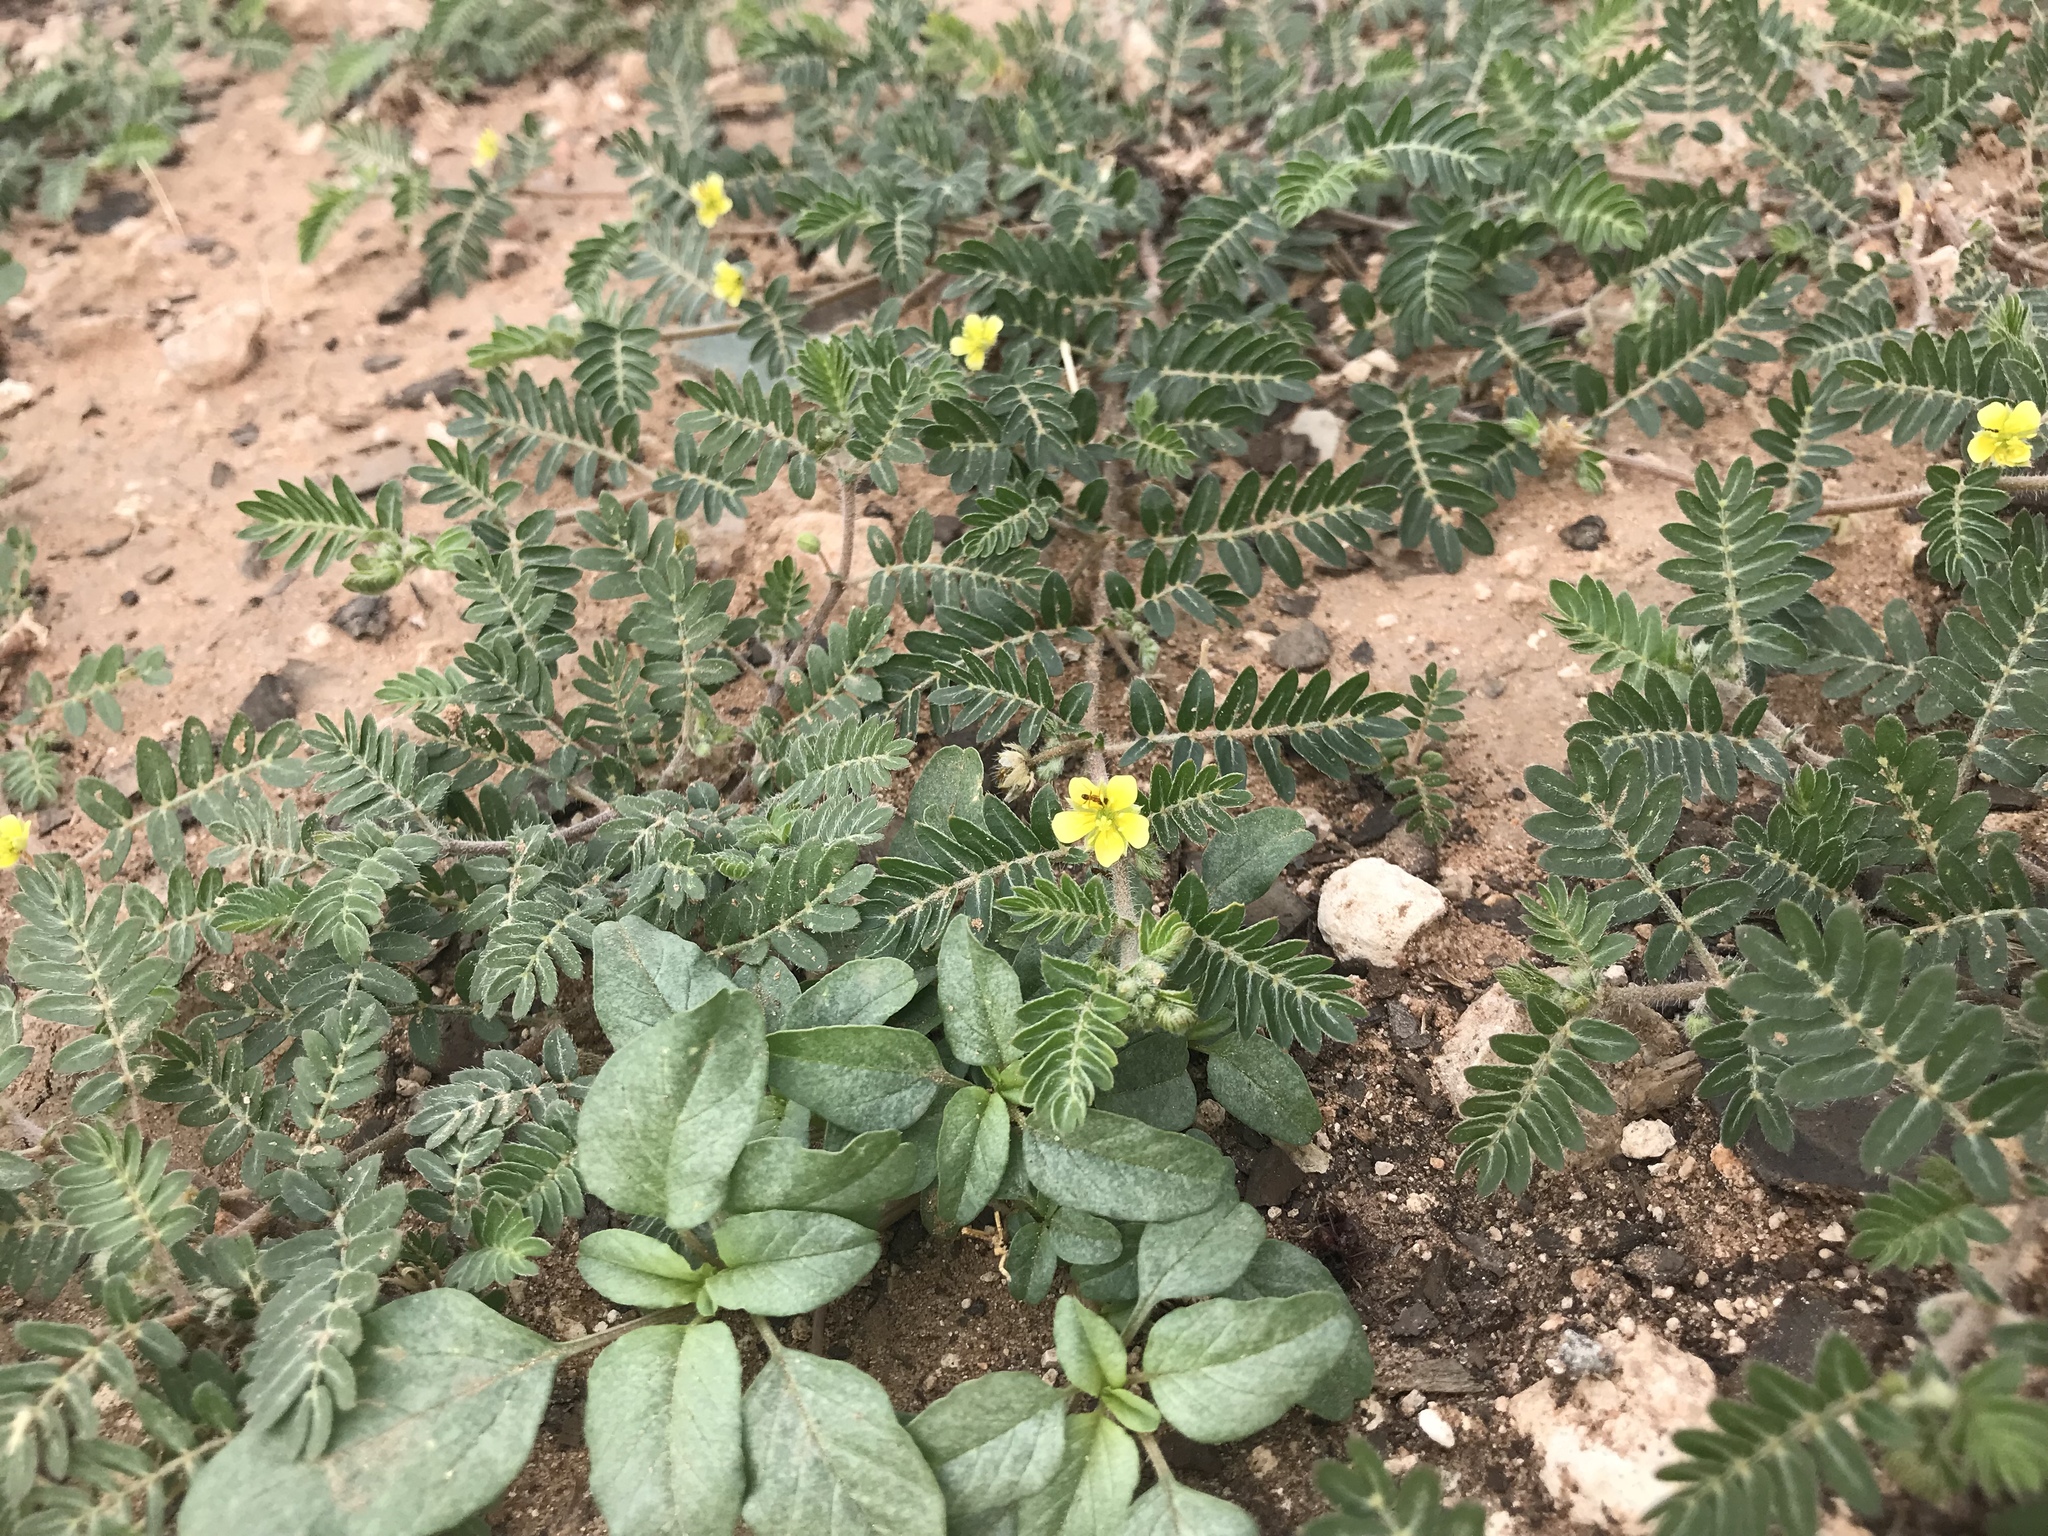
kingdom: Plantae
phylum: Tracheophyta
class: Magnoliopsida
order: Zygophyllales
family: Zygophyllaceae
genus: Tribulus
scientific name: Tribulus terrestris
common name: Puncturevine
